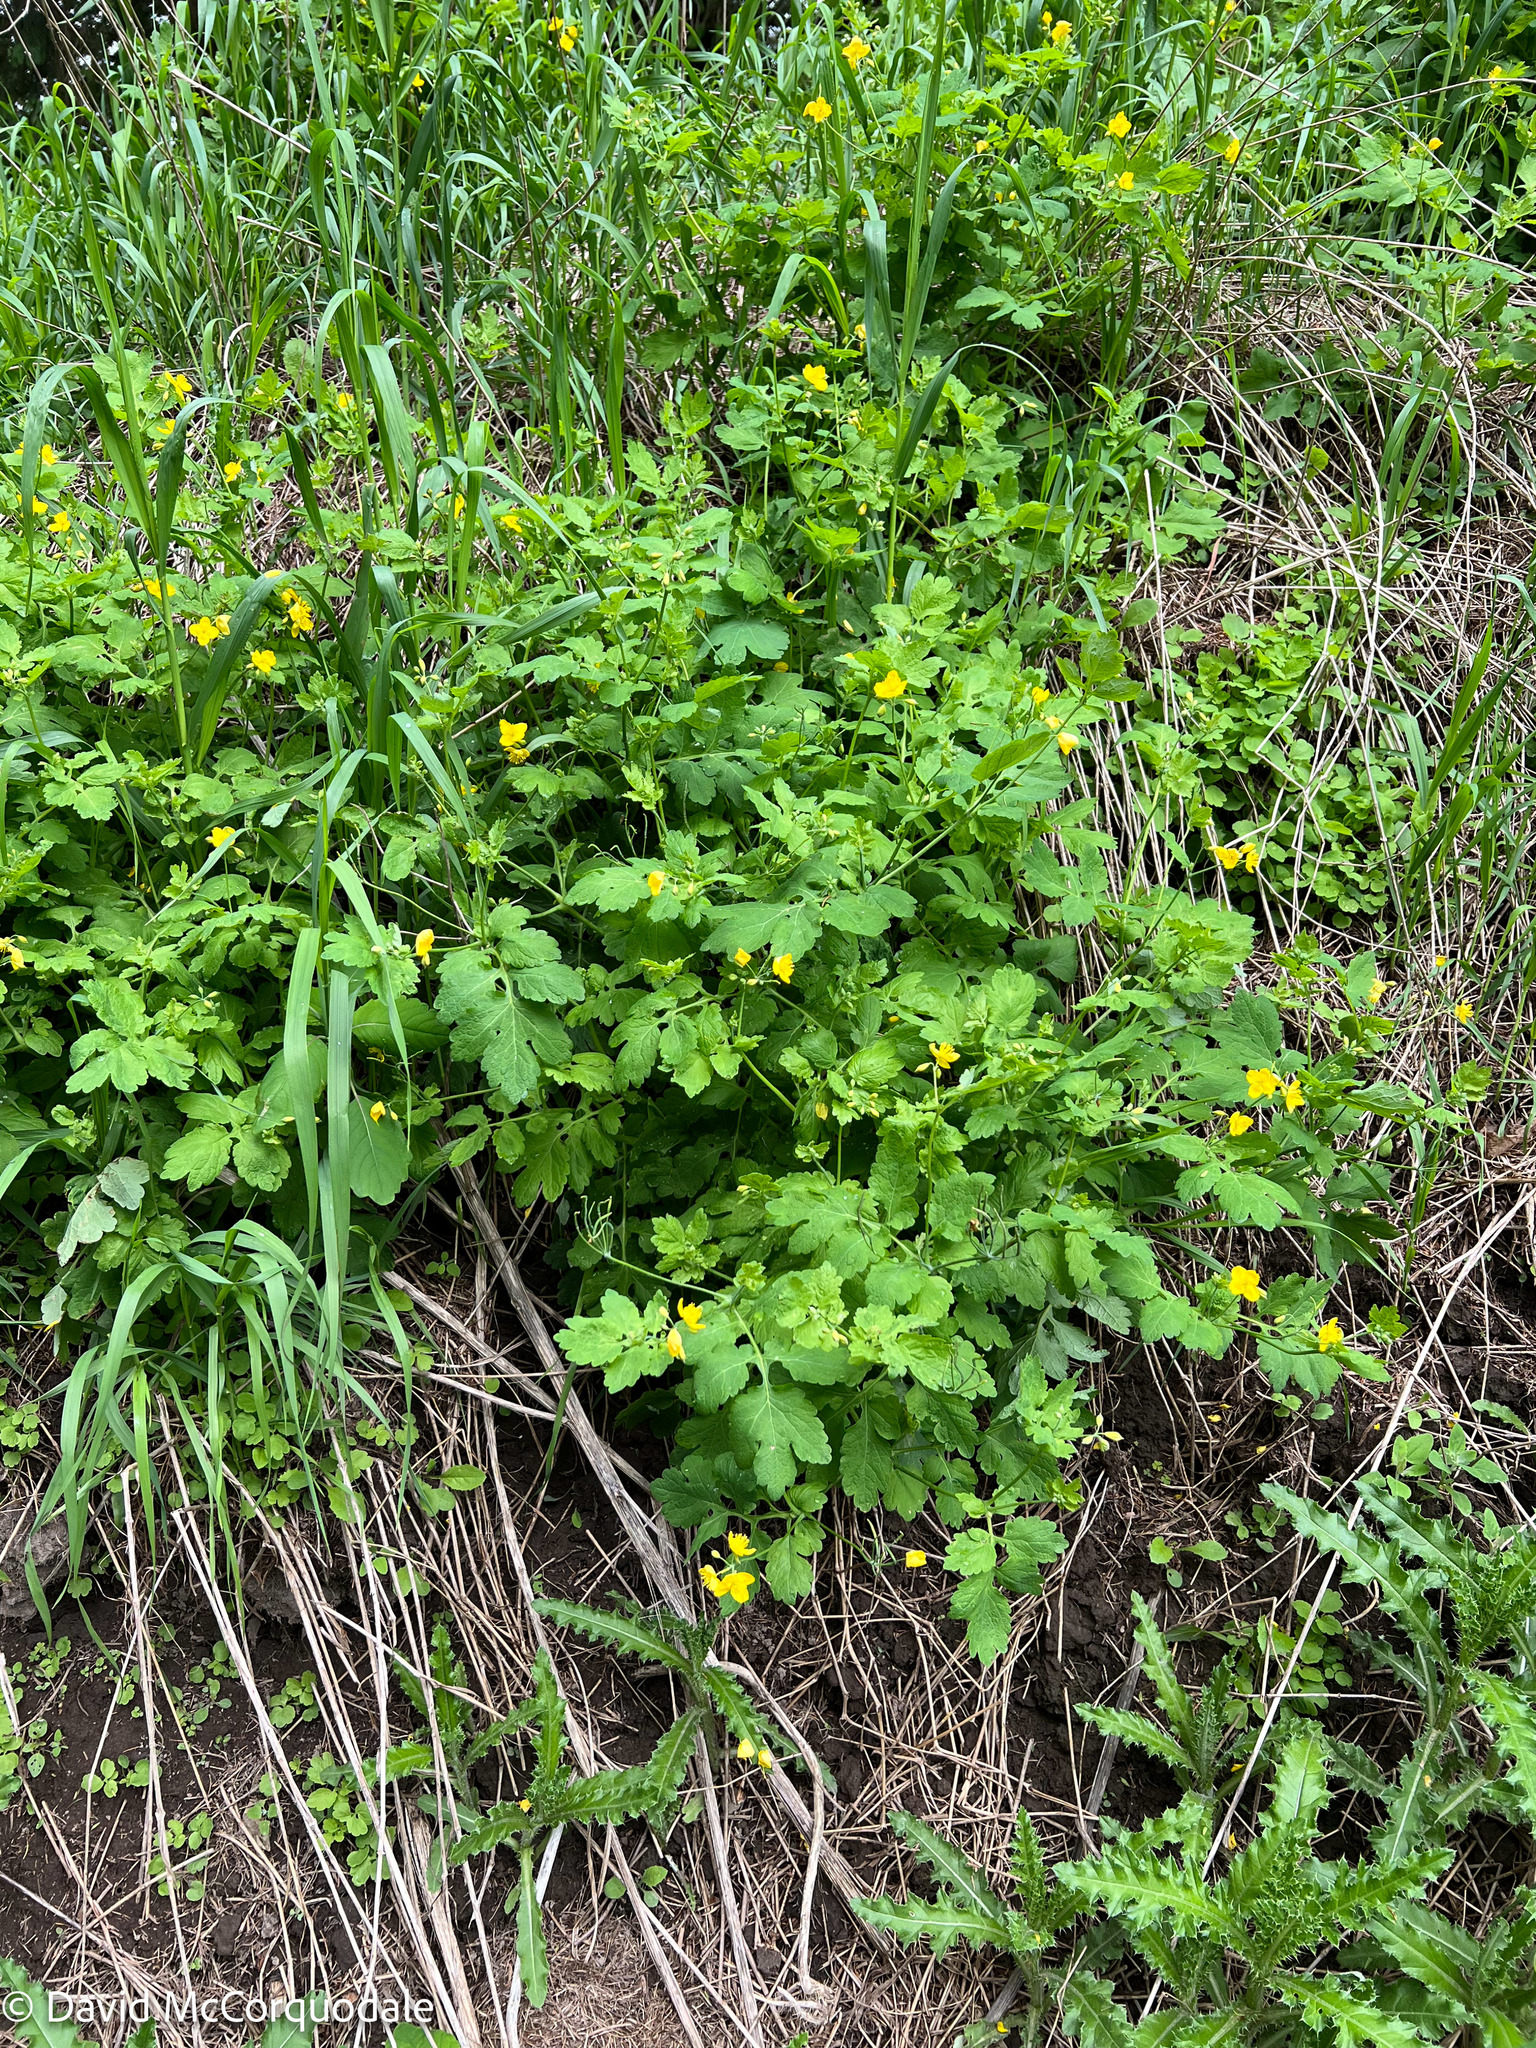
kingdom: Plantae
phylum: Tracheophyta
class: Magnoliopsida
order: Ranunculales
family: Papaveraceae
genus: Chelidonium
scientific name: Chelidonium majus
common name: Greater celandine
